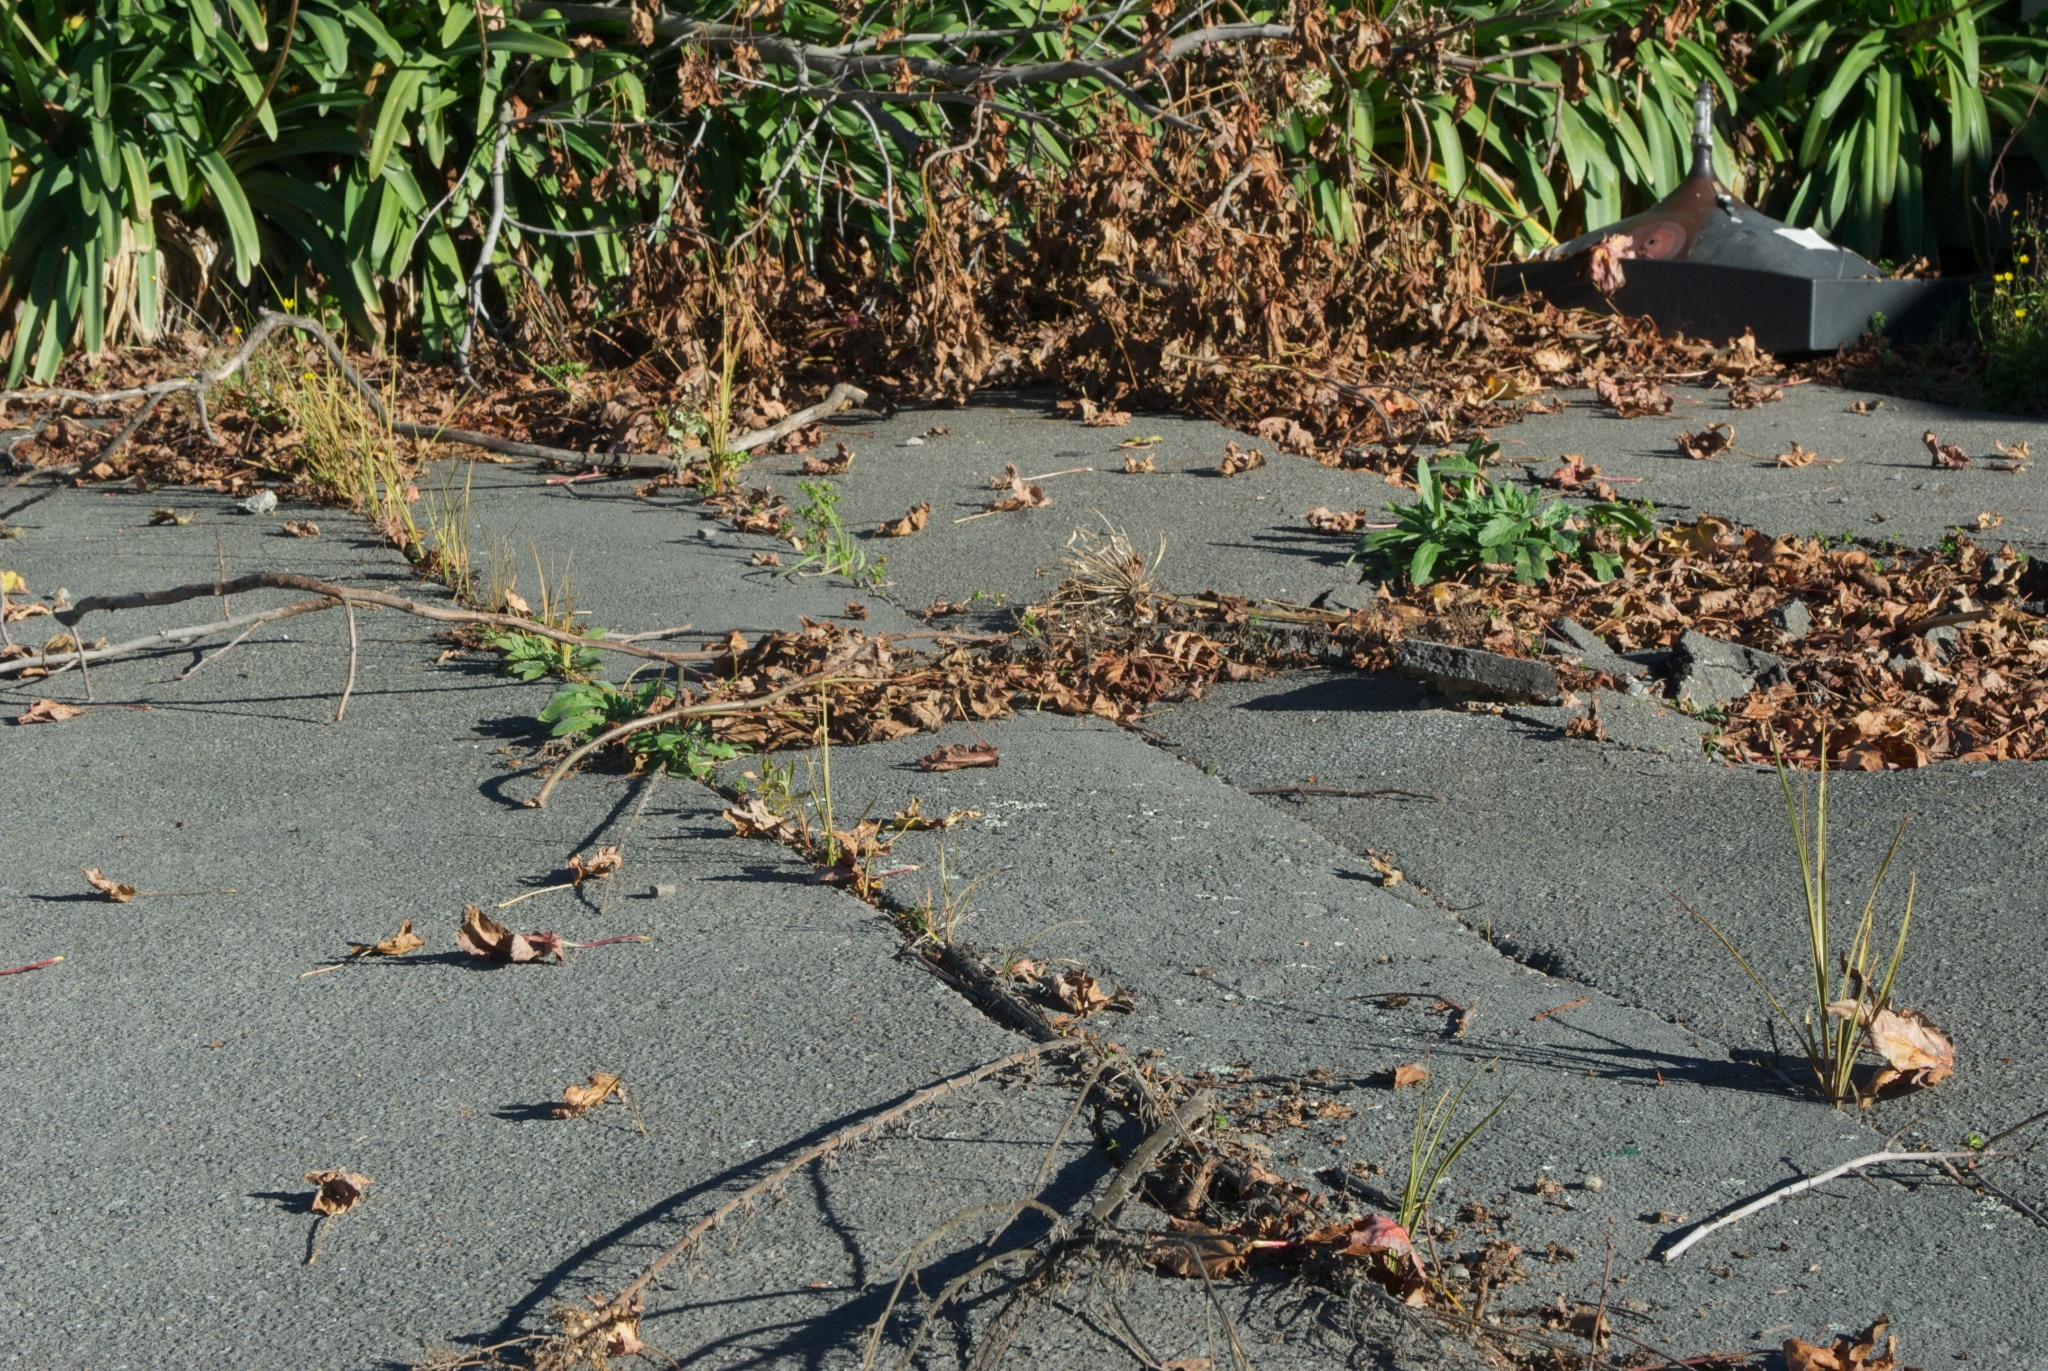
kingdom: Plantae
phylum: Tracheophyta
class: Liliopsida
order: Asparagales
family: Asparagaceae
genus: Cordyline
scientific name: Cordyline australis
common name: Cabbage-palm
